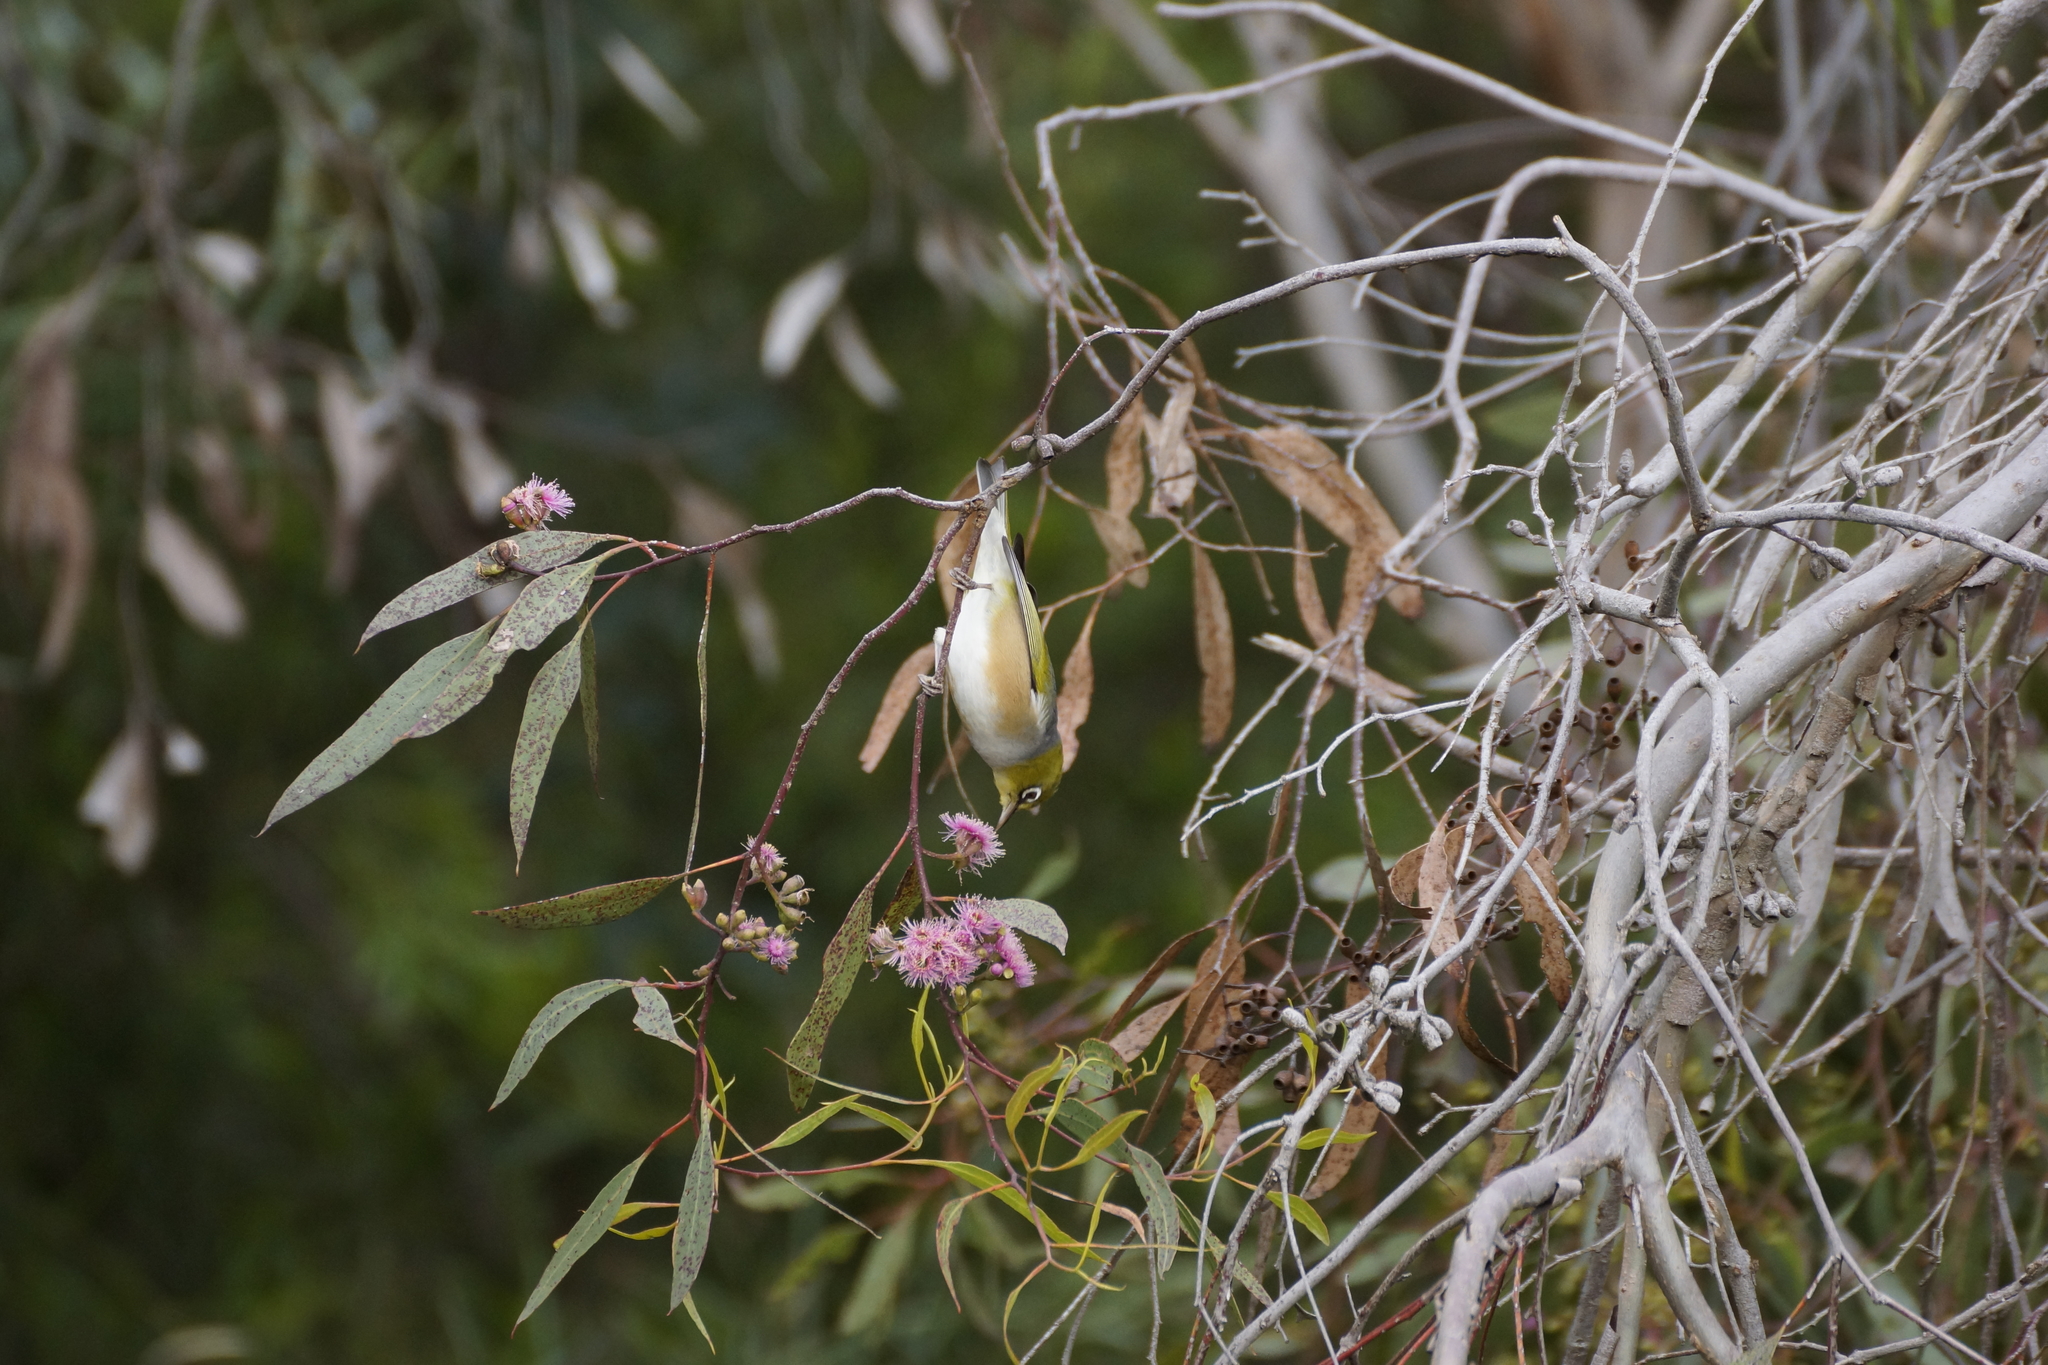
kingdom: Animalia
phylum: Chordata
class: Aves
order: Passeriformes
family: Zosteropidae
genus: Zosterops
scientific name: Zosterops lateralis
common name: Silvereye
